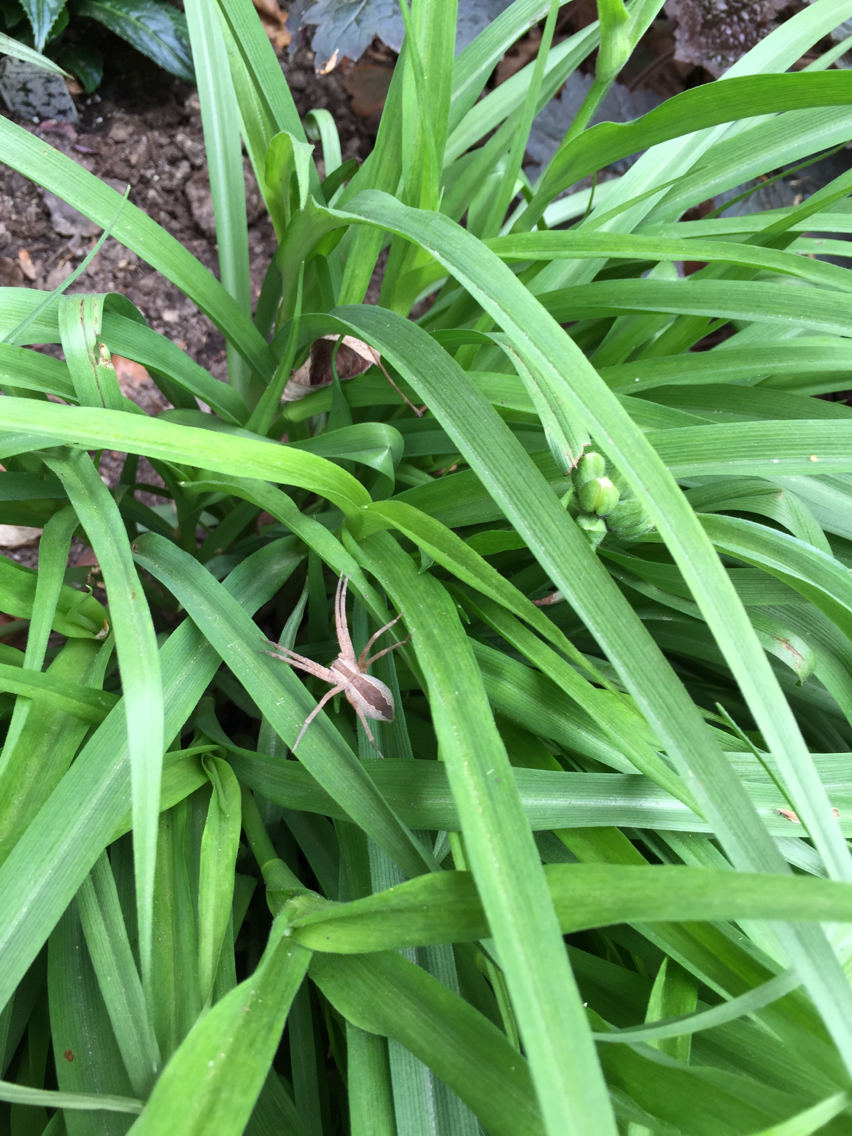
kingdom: Animalia
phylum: Arthropoda
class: Arachnida
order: Araneae
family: Pisauridae
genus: Pisaurina
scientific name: Pisaurina mira
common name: American nursery web spider
